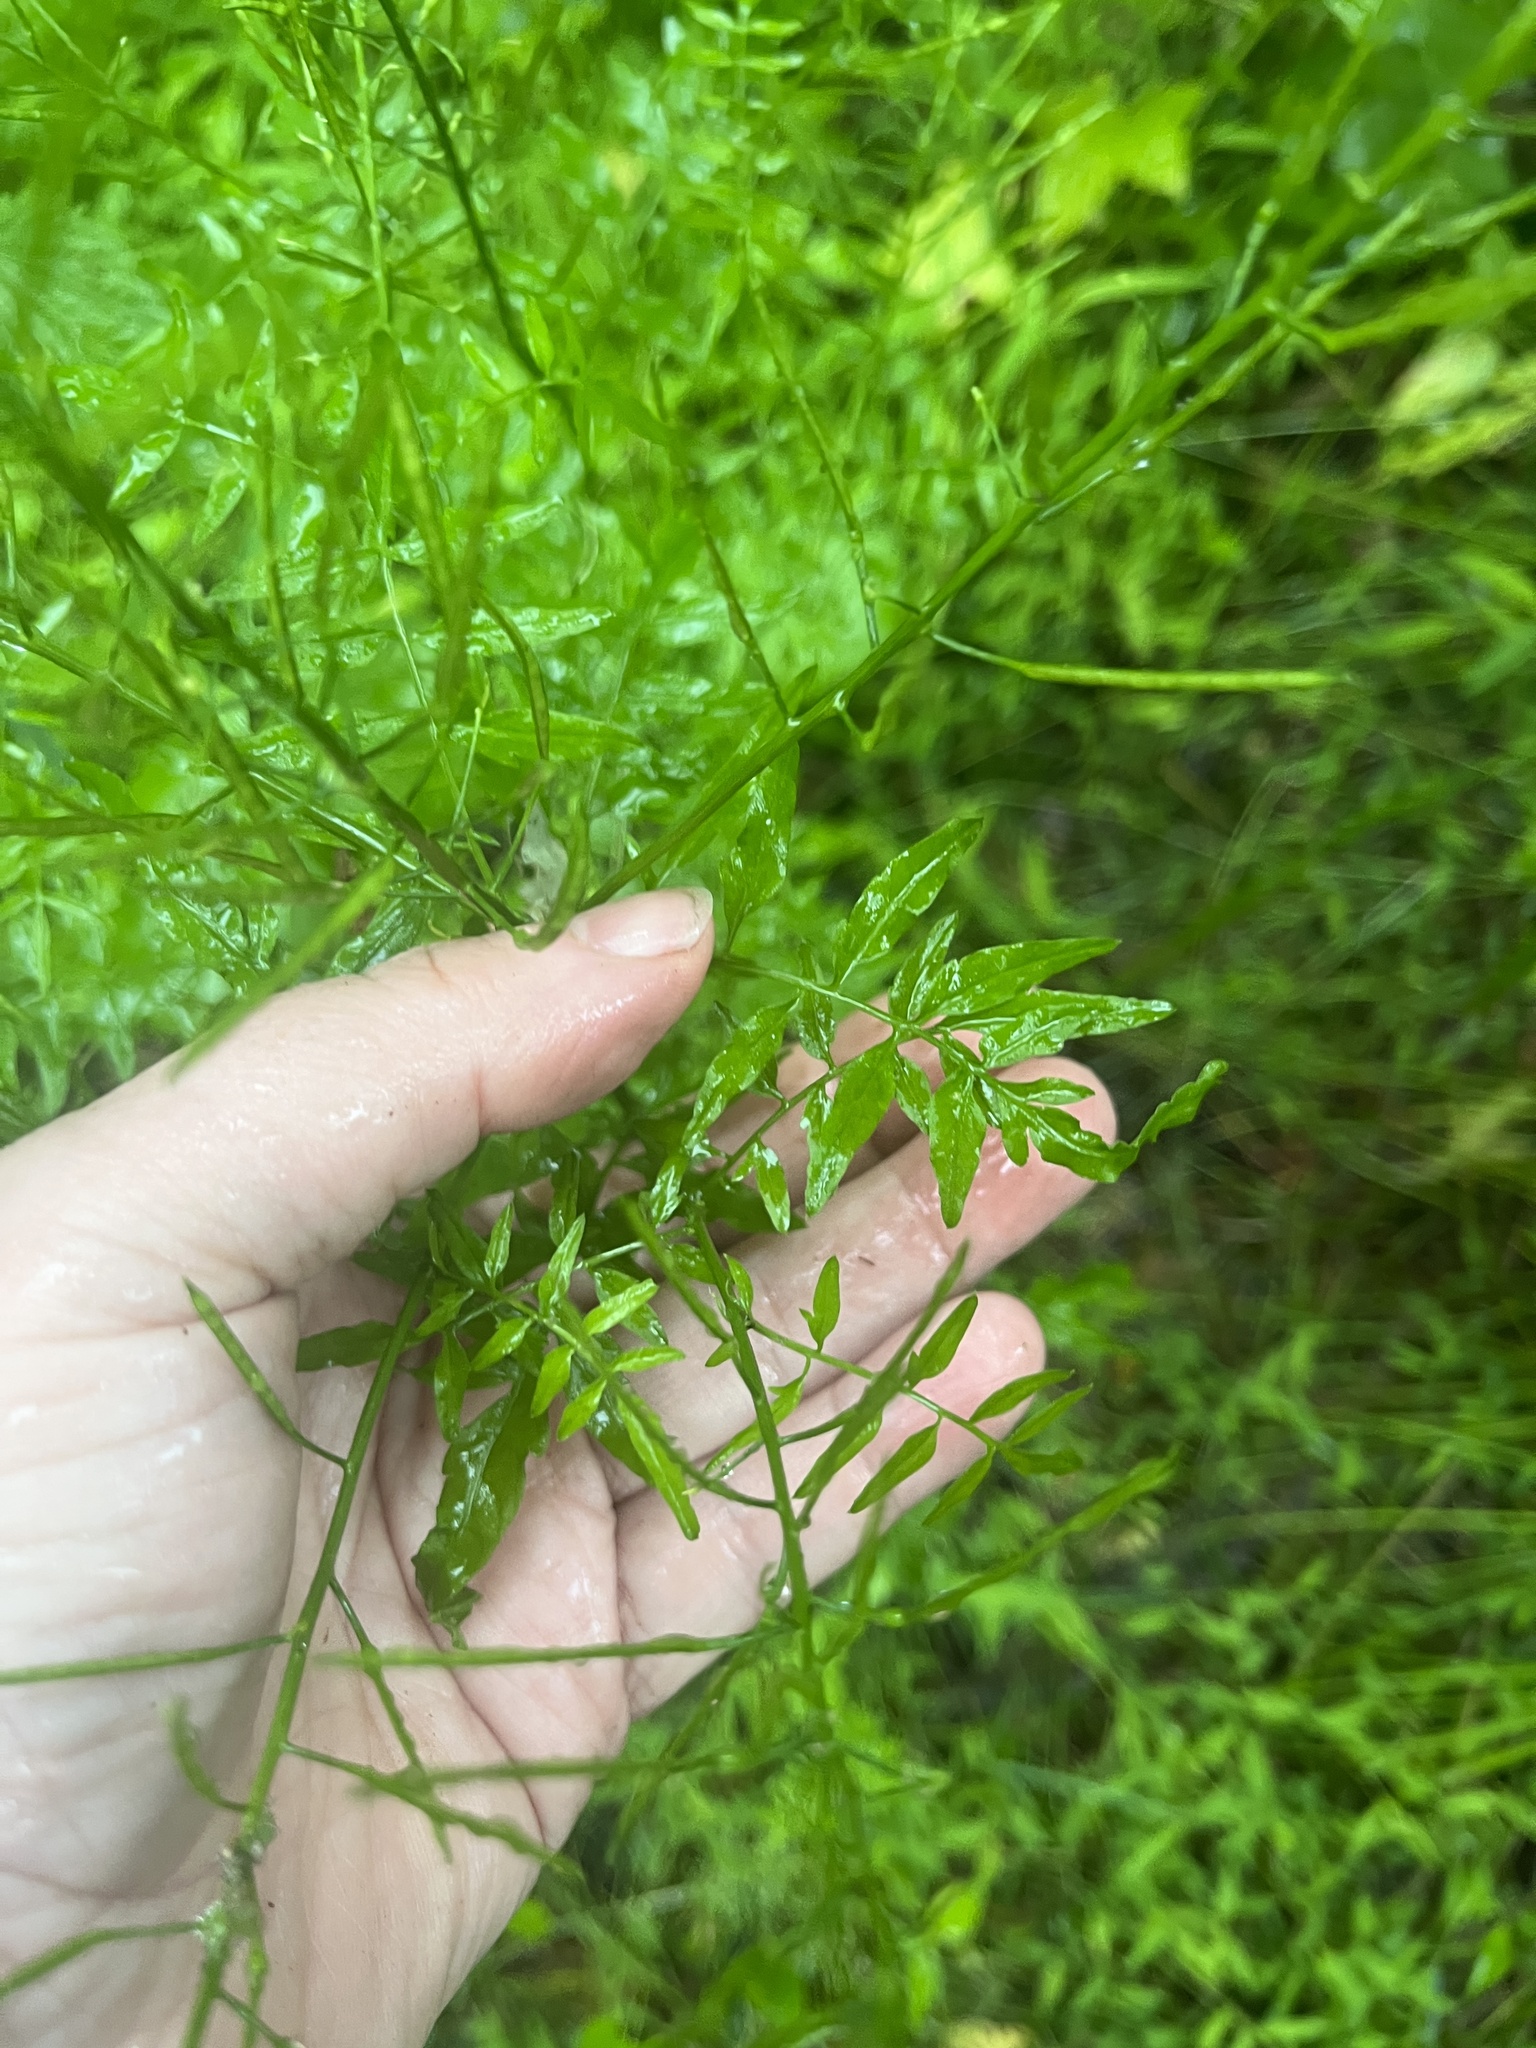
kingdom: Plantae
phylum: Tracheophyta
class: Magnoliopsida
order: Brassicales
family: Brassicaceae
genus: Cardamine
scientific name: Cardamine impatiens
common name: Narrow-leaved bitter-cress
